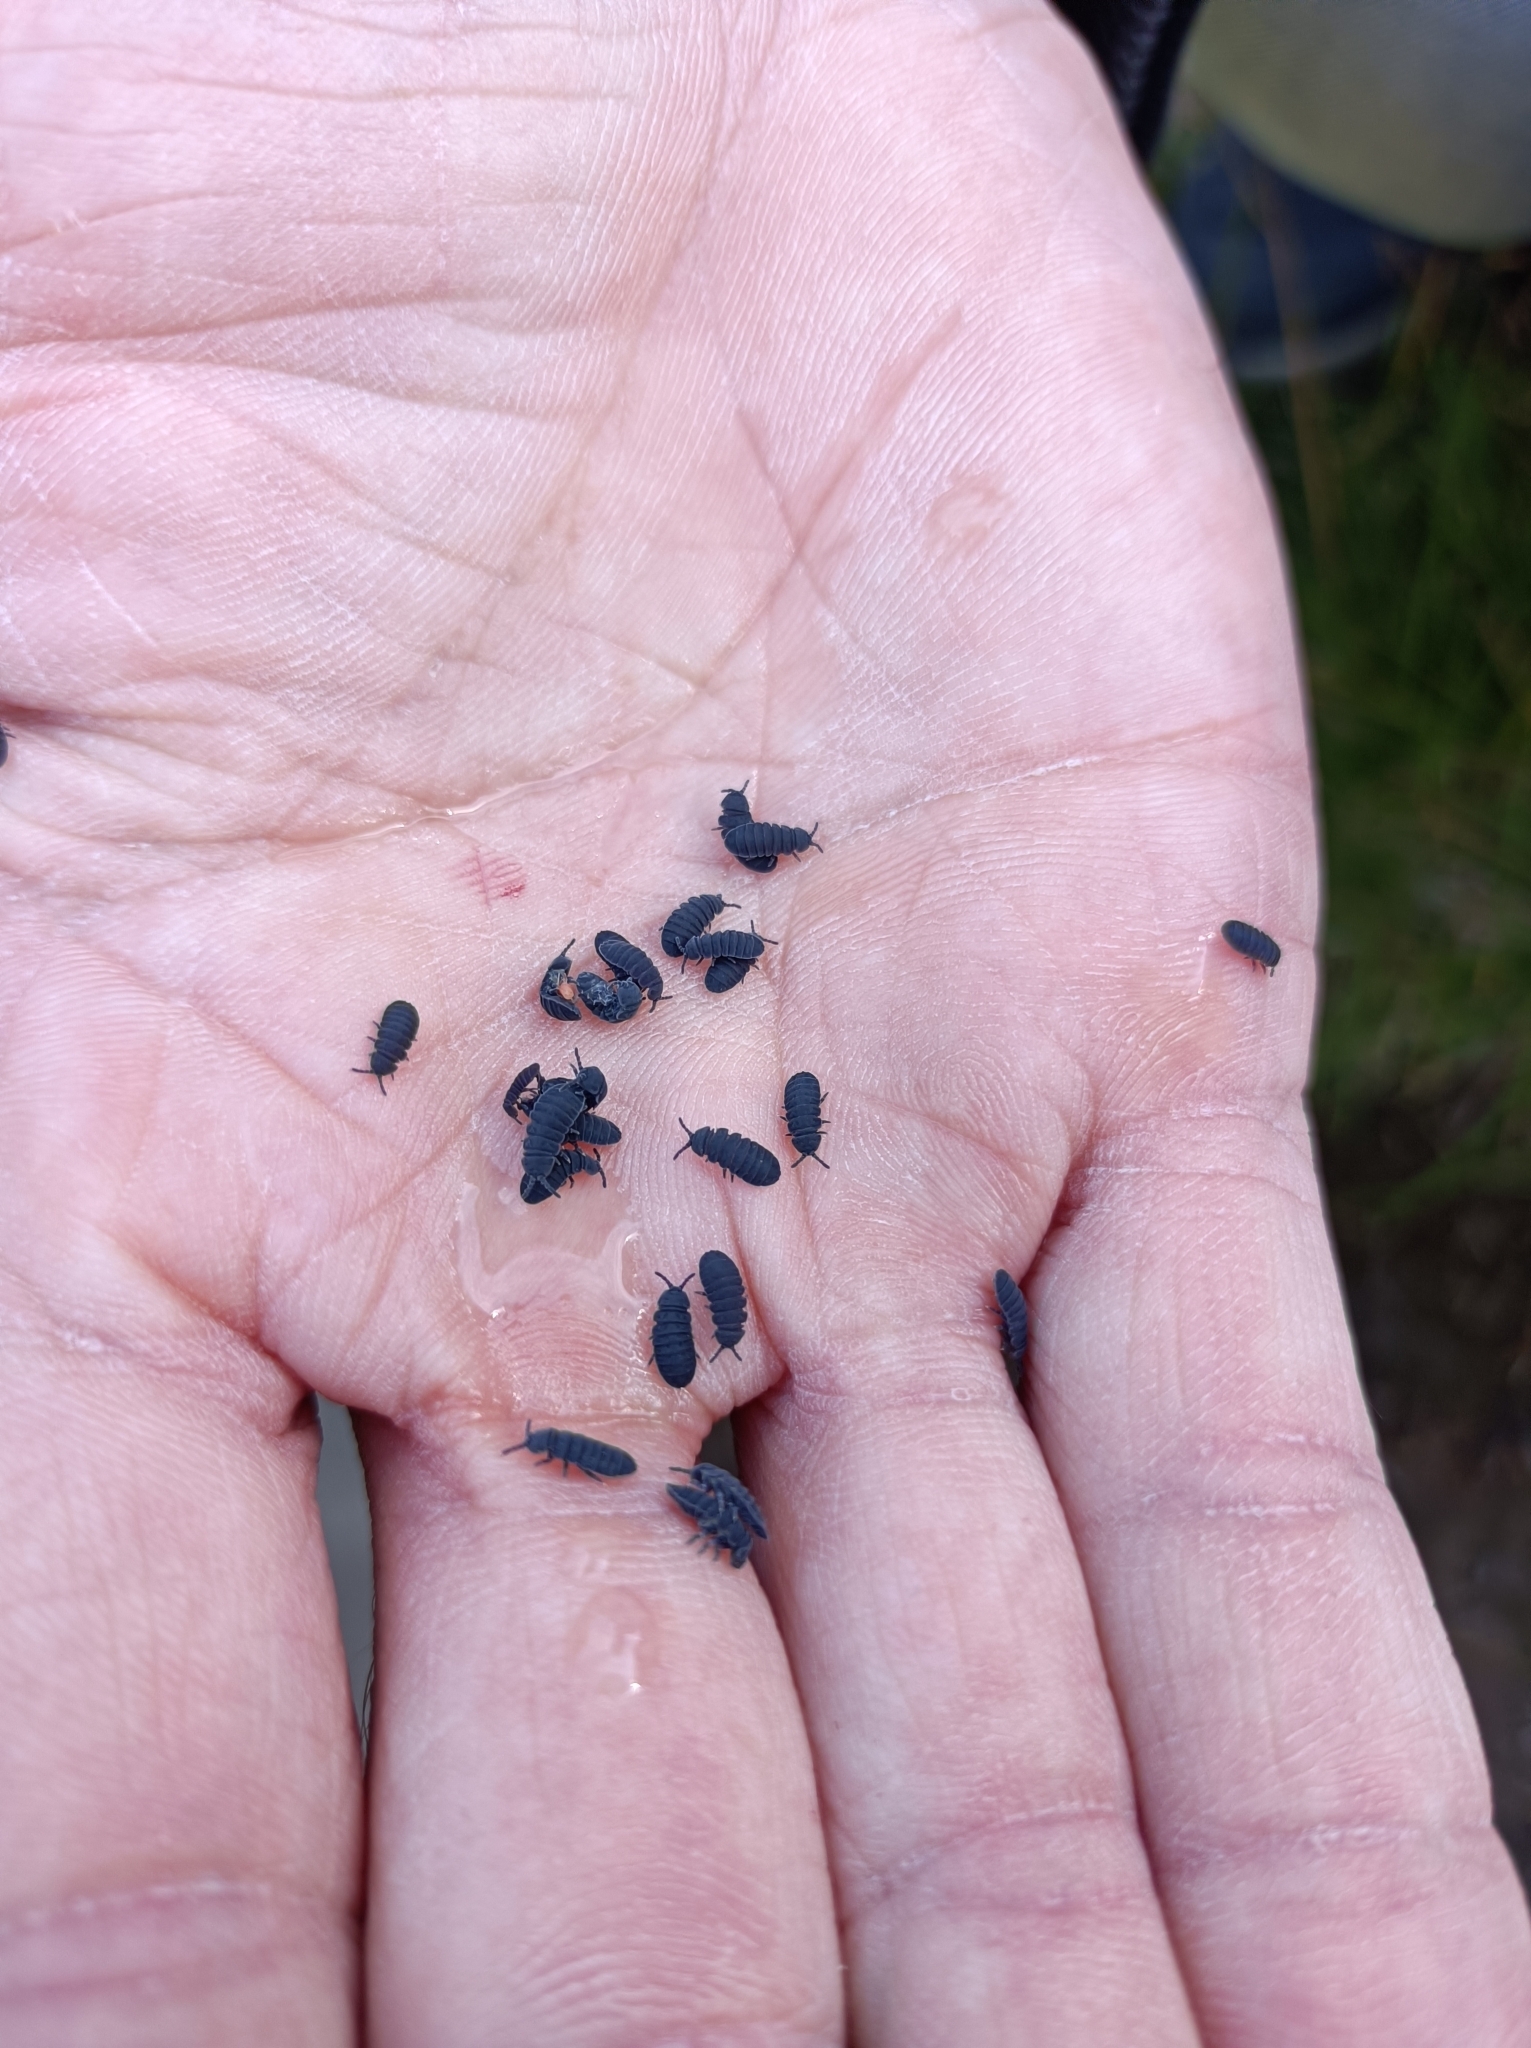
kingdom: Animalia
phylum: Arthropoda
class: Collembola
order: Poduromorpha
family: Onychiuridae
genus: Tetrodontophora
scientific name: Tetrodontophora bielanensis
